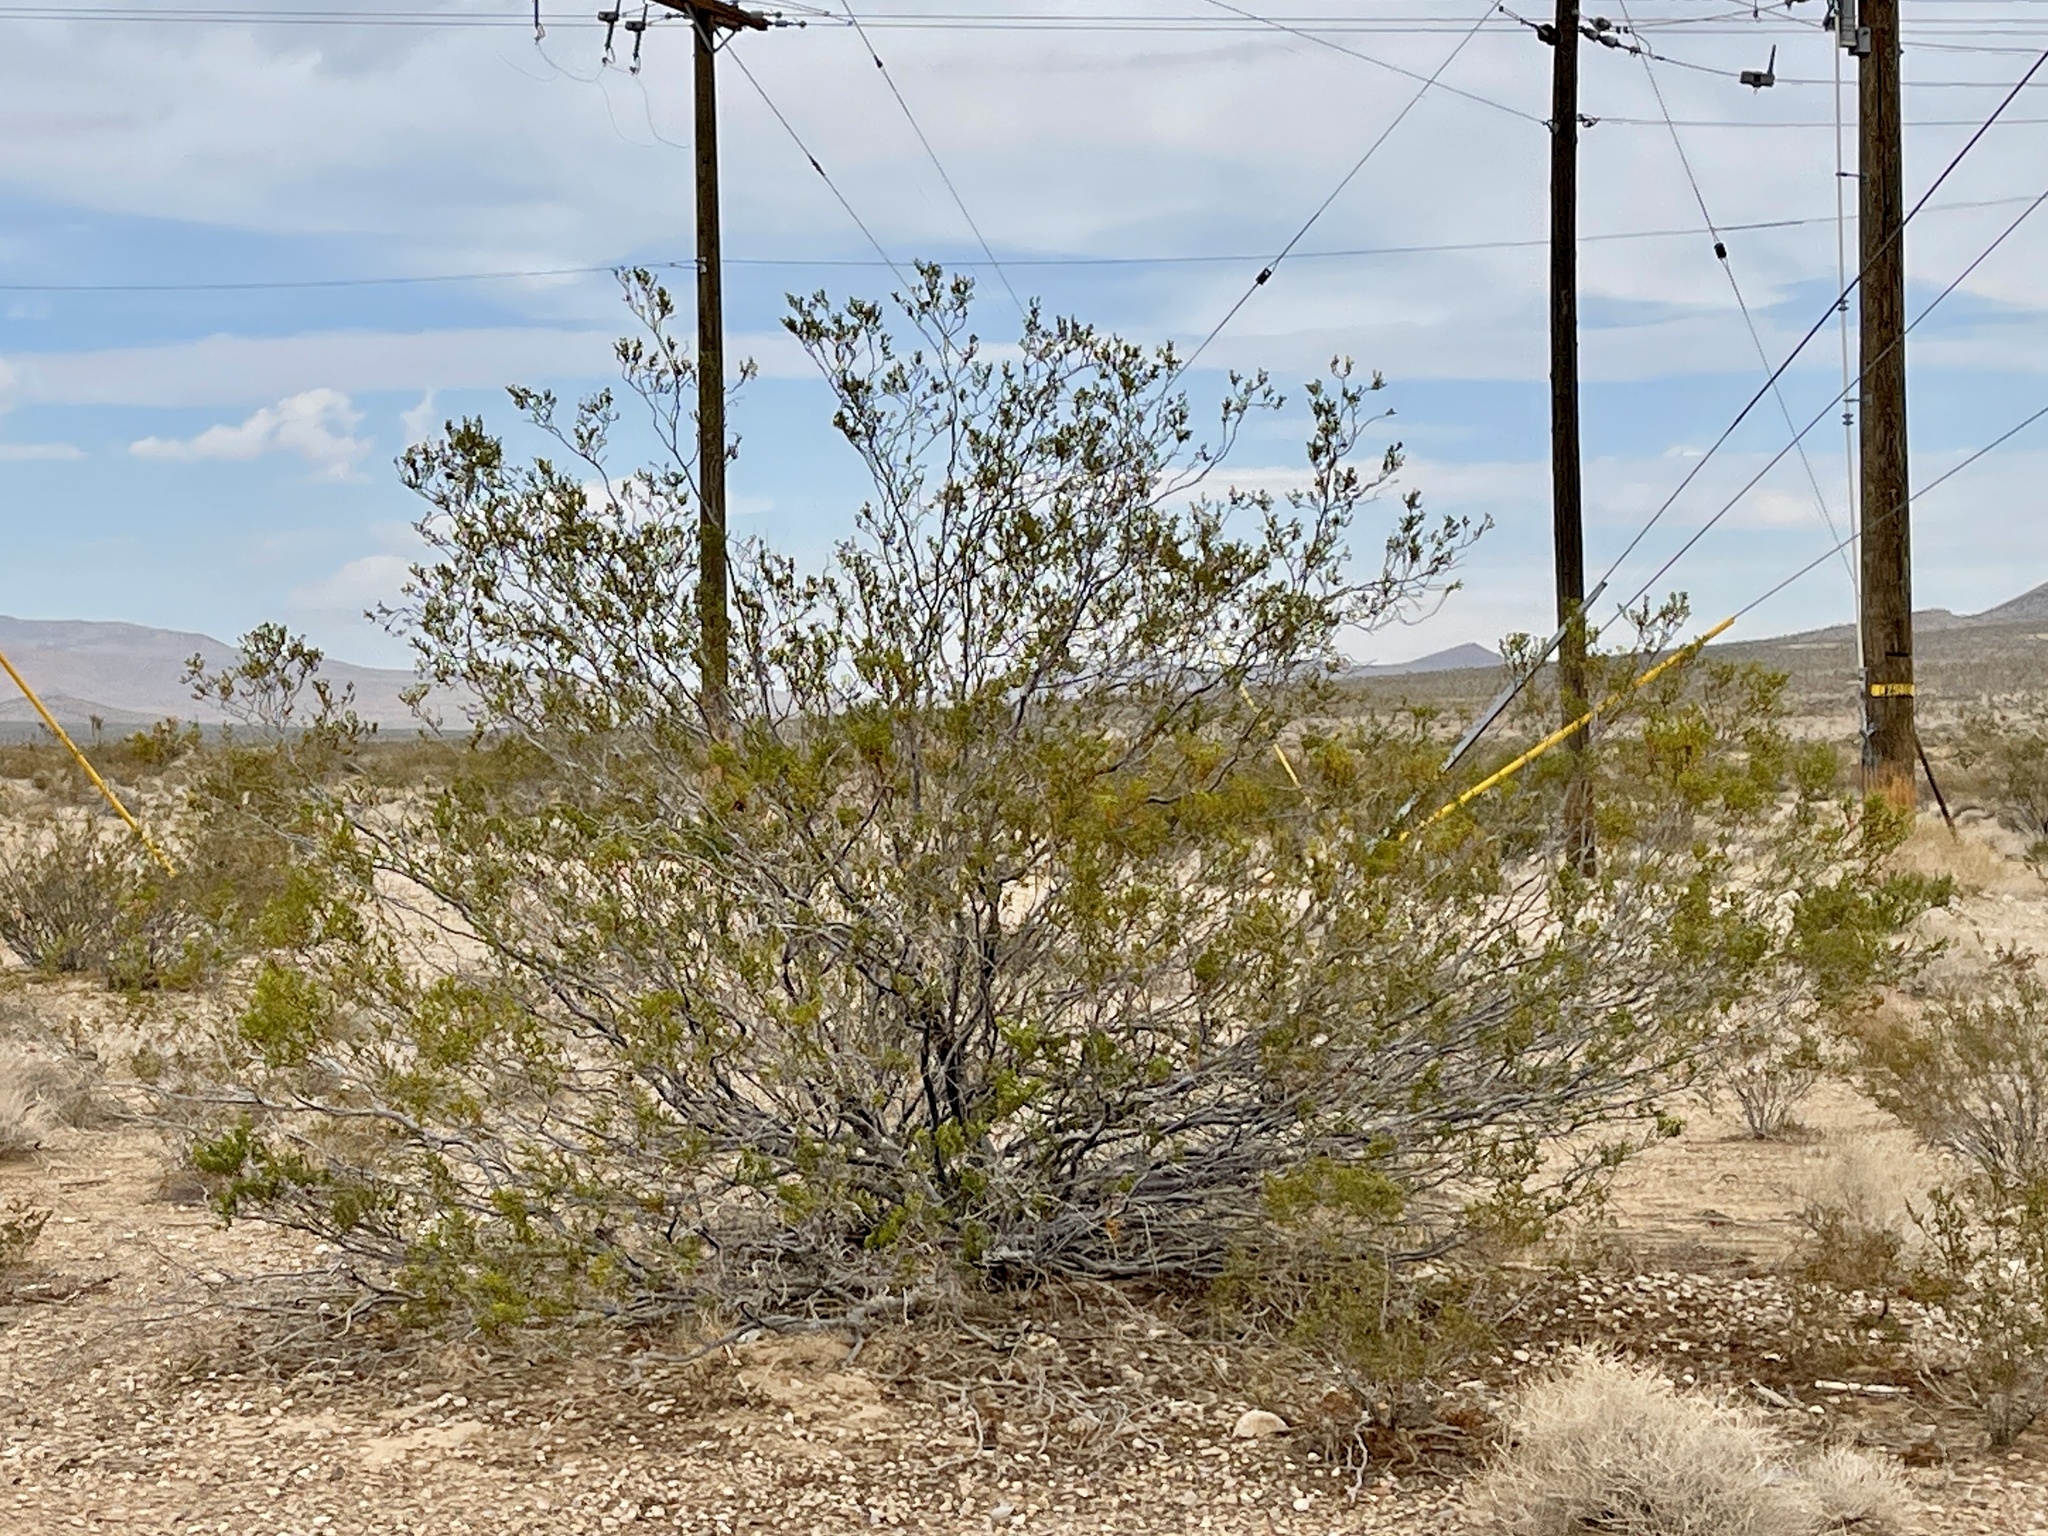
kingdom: Plantae
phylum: Tracheophyta
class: Magnoliopsida
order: Zygophyllales
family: Zygophyllaceae
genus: Larrea
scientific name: Larrea tridentata
